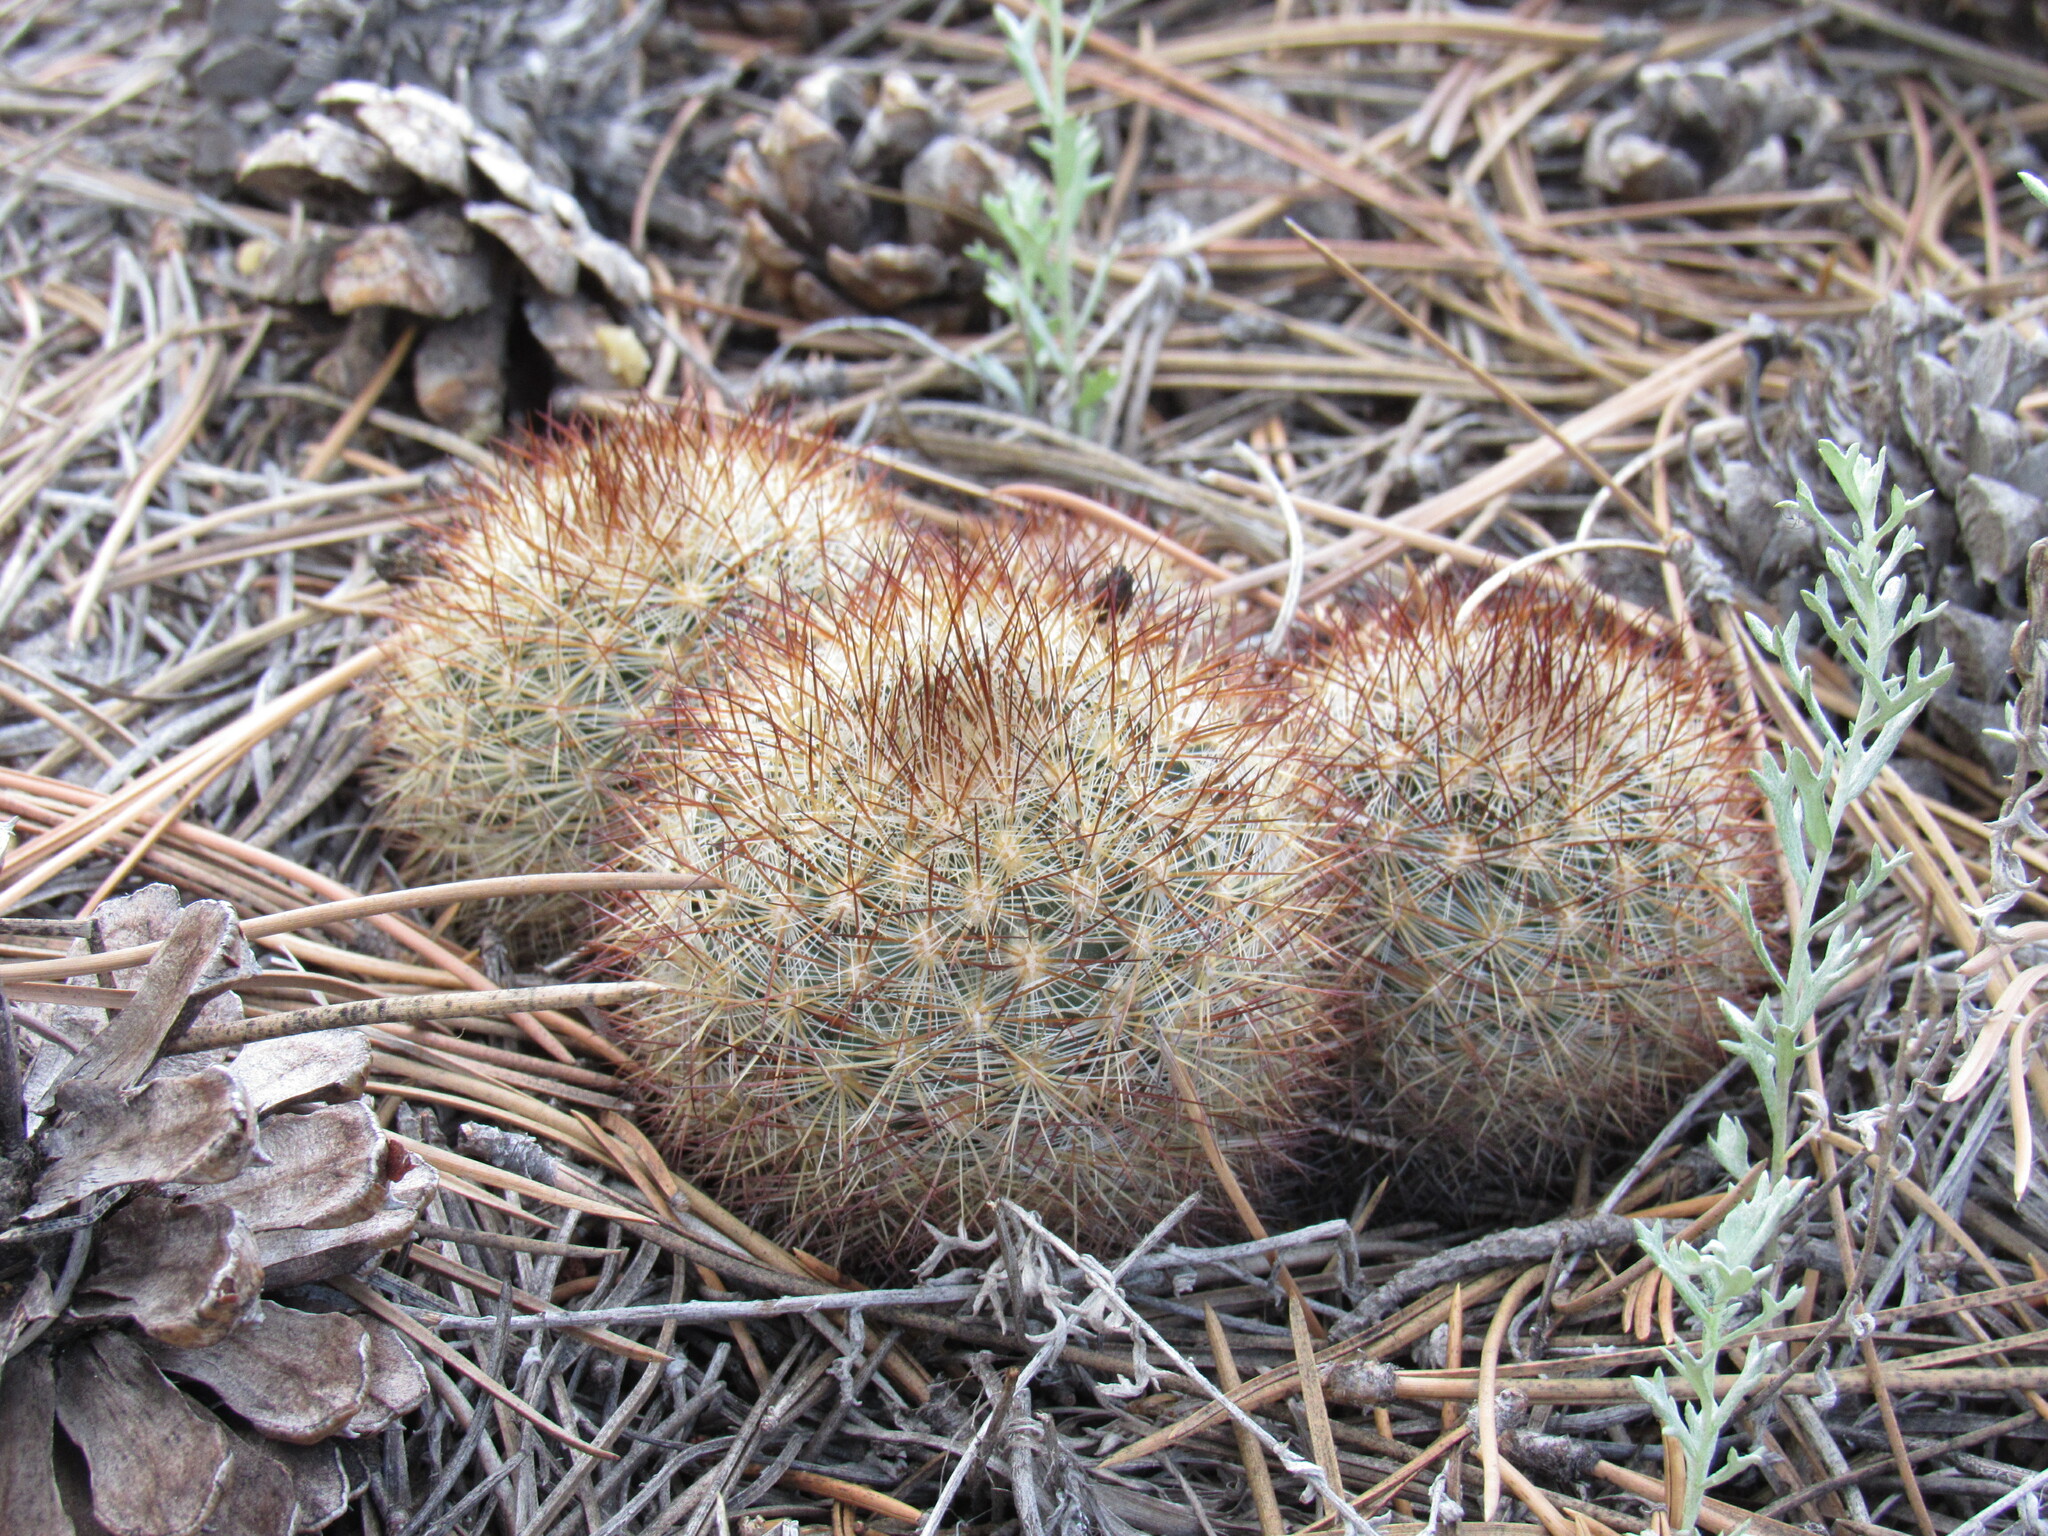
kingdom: Plantae
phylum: Tracheophyta
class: Magnoliopsida
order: Caryophyllales
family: Cactaceae
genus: Pediocactus
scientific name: Pediocactus simpsonii
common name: Simpson's hedgehog cactus
